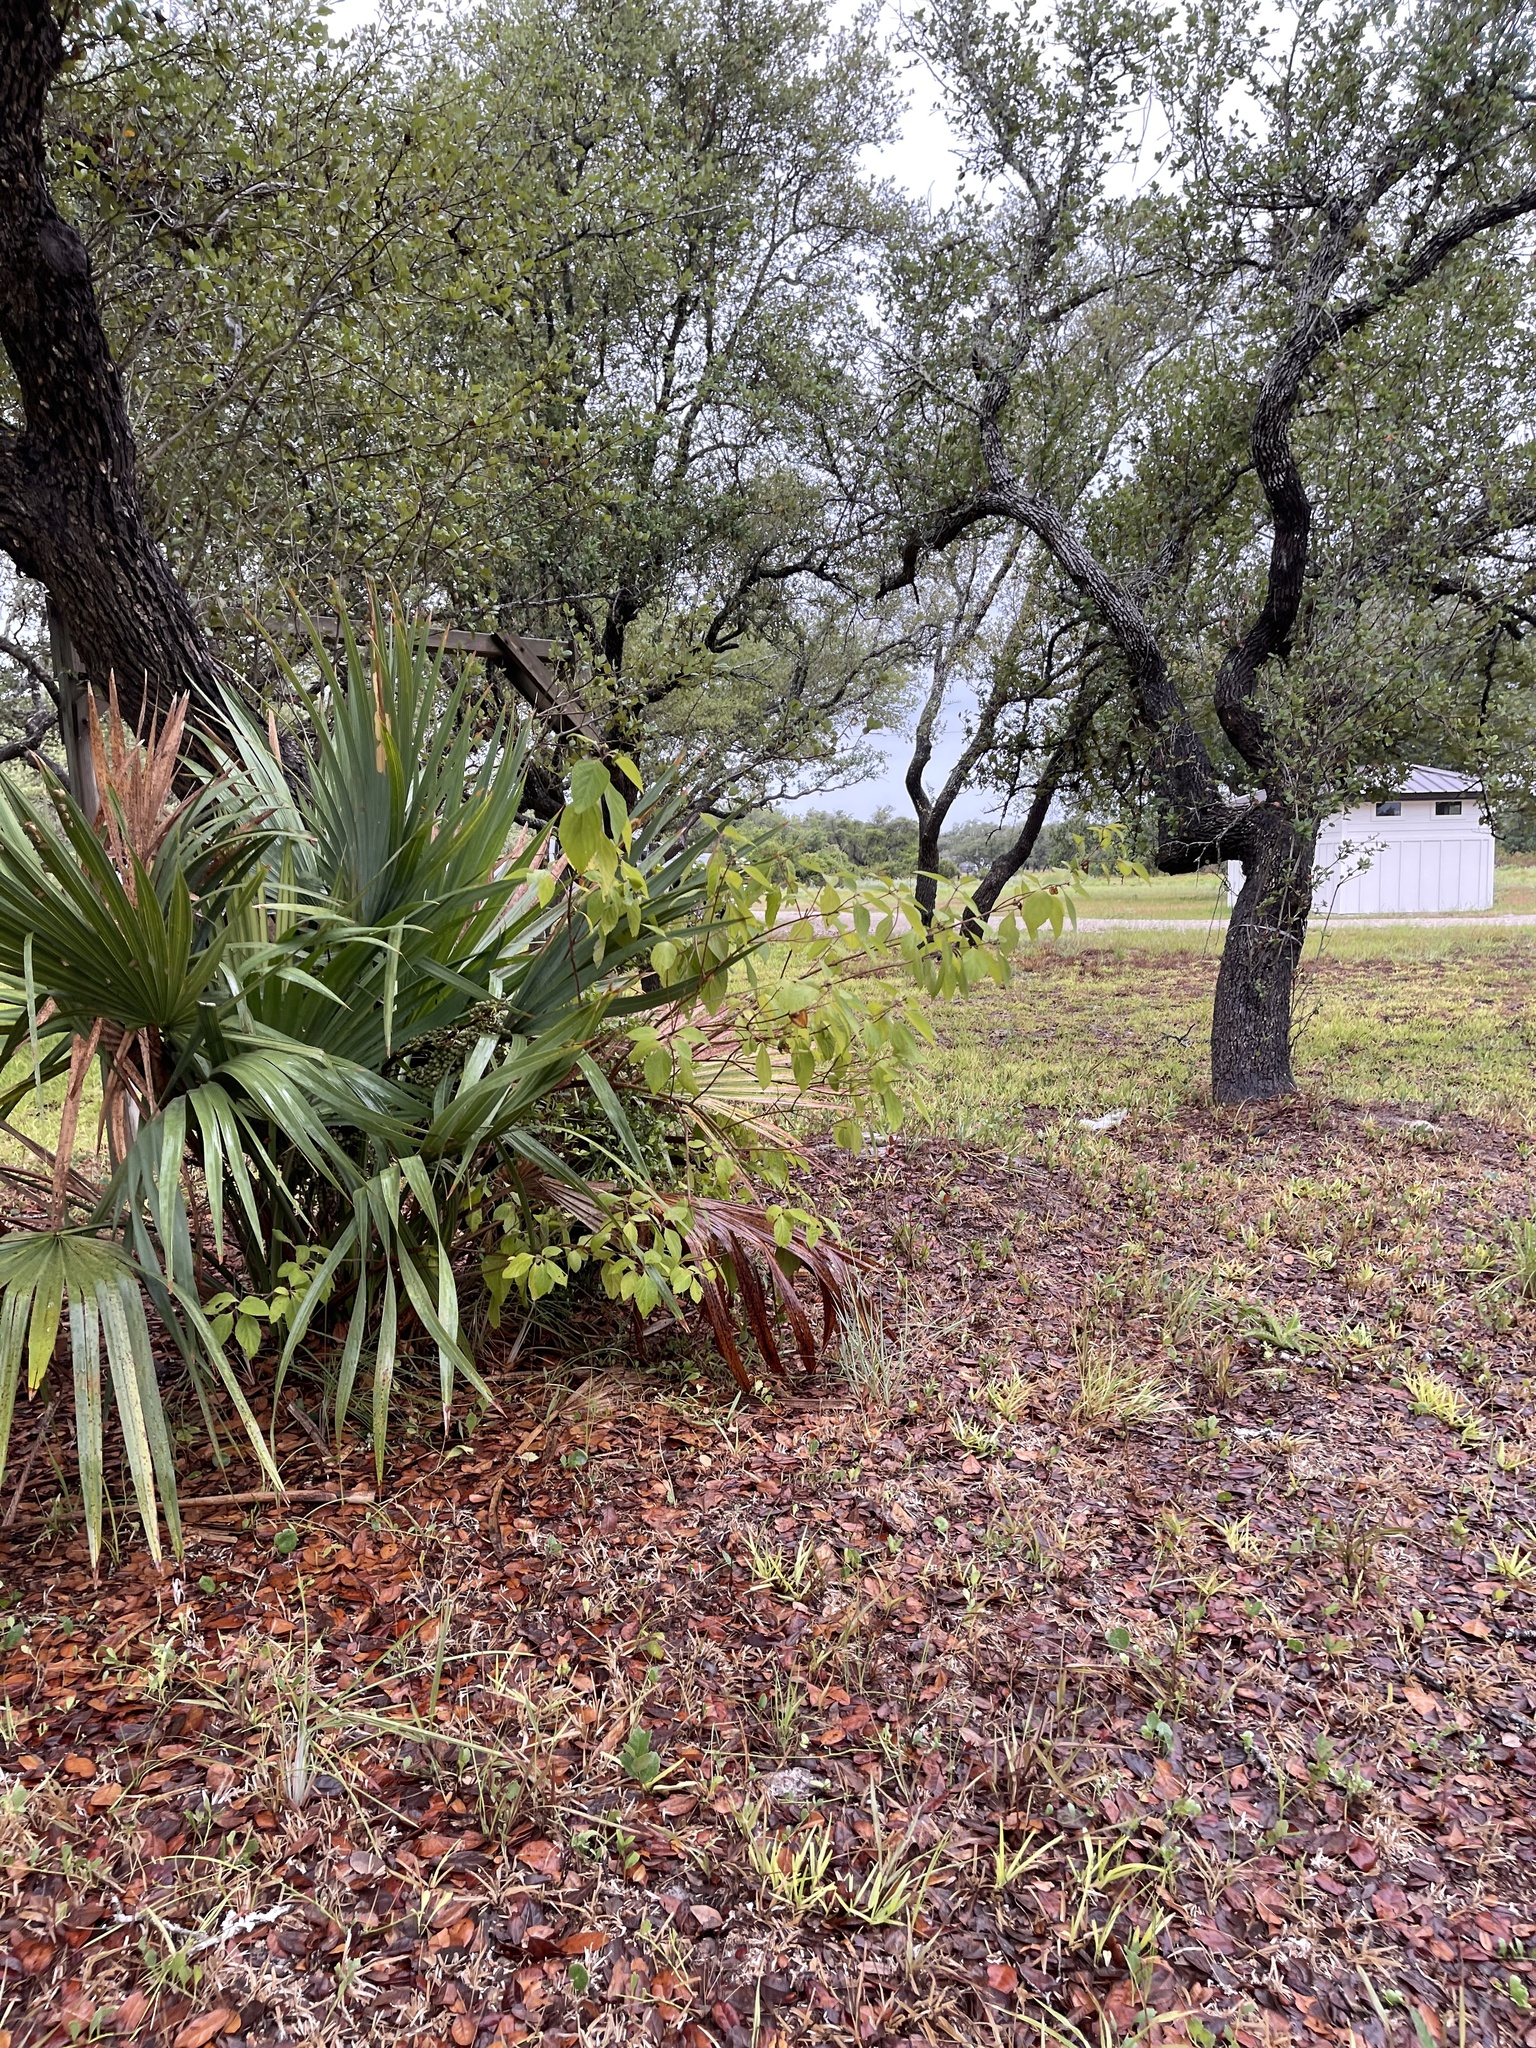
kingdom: Plantae
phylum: Tracheophyta
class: Magnoliopsida
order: Lamiales
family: Lamiaceae
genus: Callicarpa
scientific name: Callicarpa americana
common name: American beautyberry
